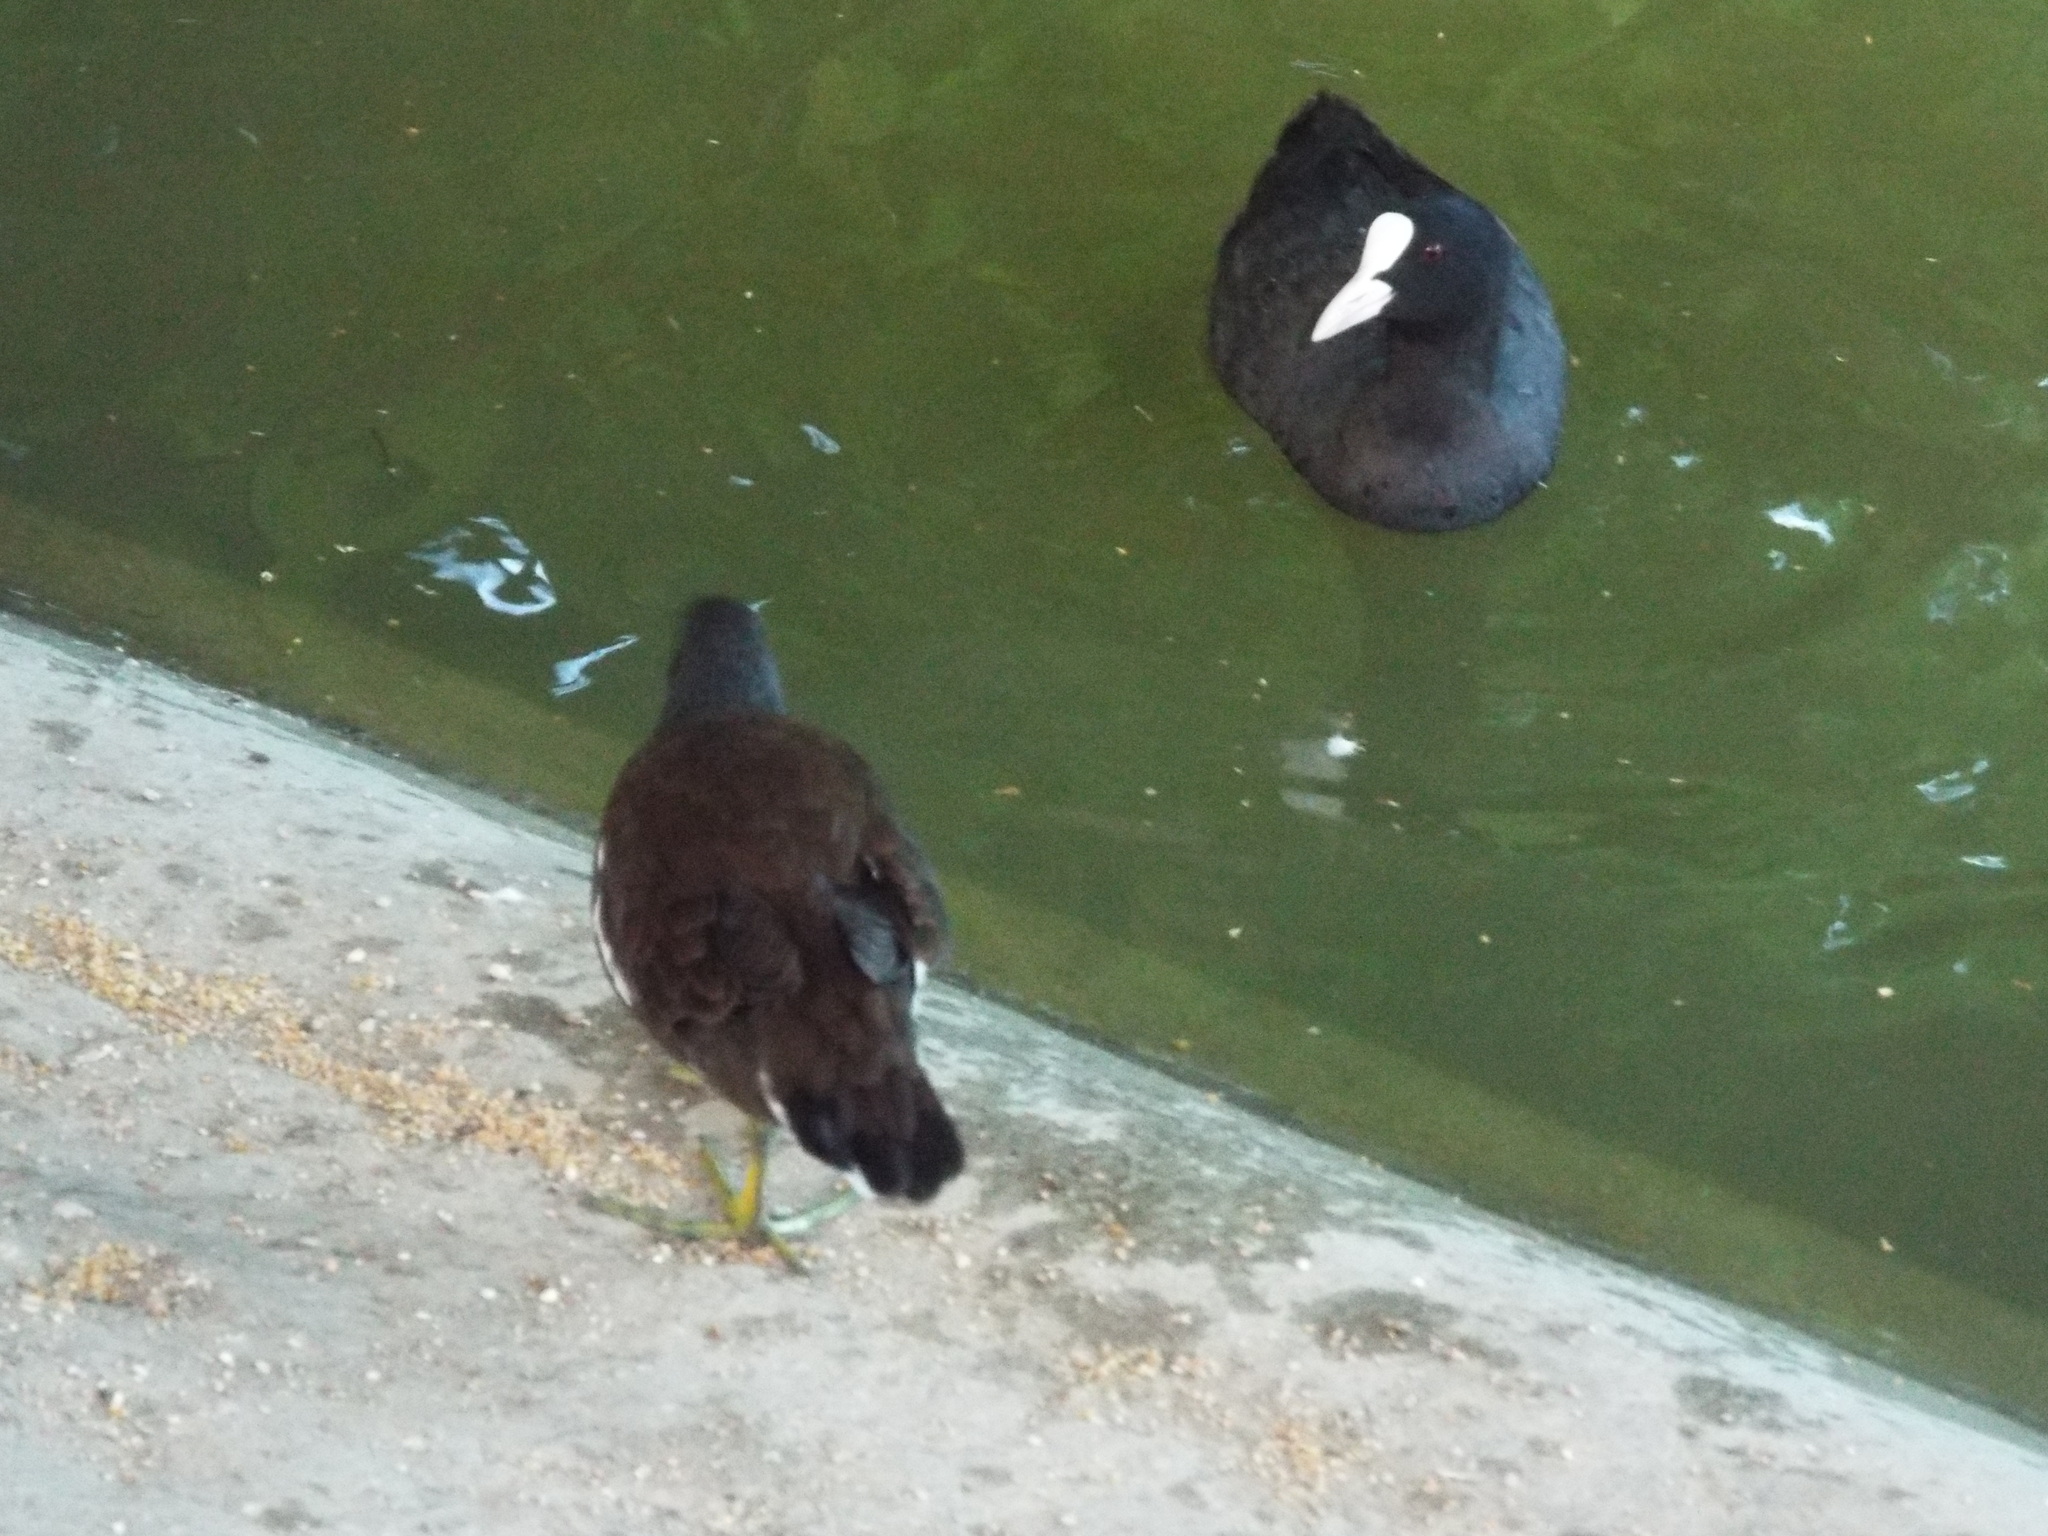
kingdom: Animalia
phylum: Chordata
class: Aves
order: Gruiformes
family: Rallidae
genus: Fulica
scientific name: Fulica atra
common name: Eurasian coot
